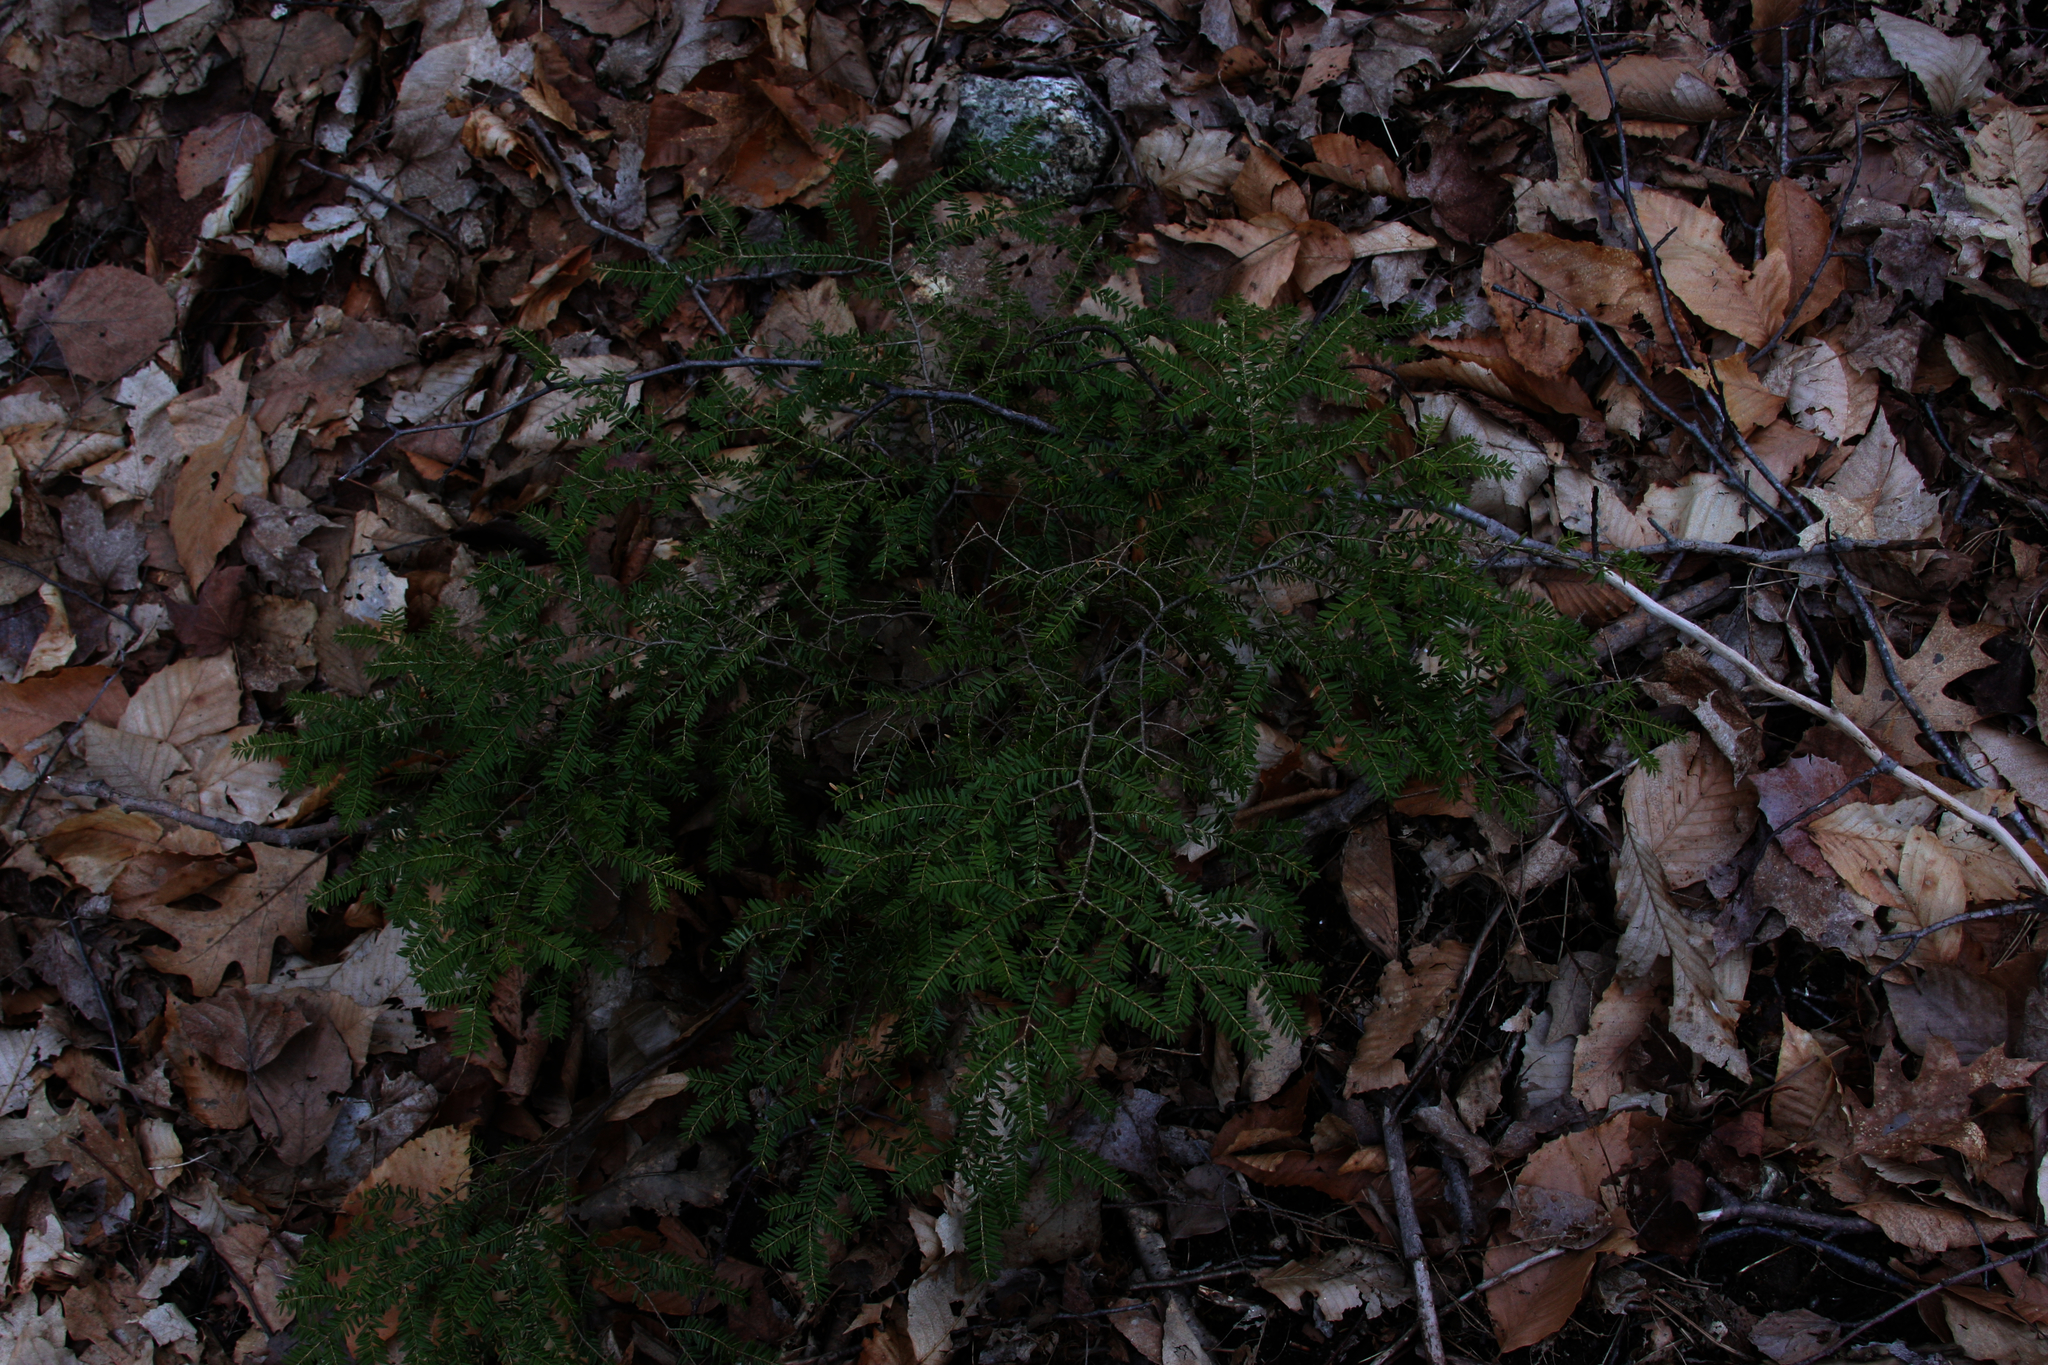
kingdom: Plantae
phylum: Tracheophyta
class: Pinopsida
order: Pinales
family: Pinaceae
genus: Tsuga
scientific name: Tsuga canadensis
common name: Eastern hemlock
